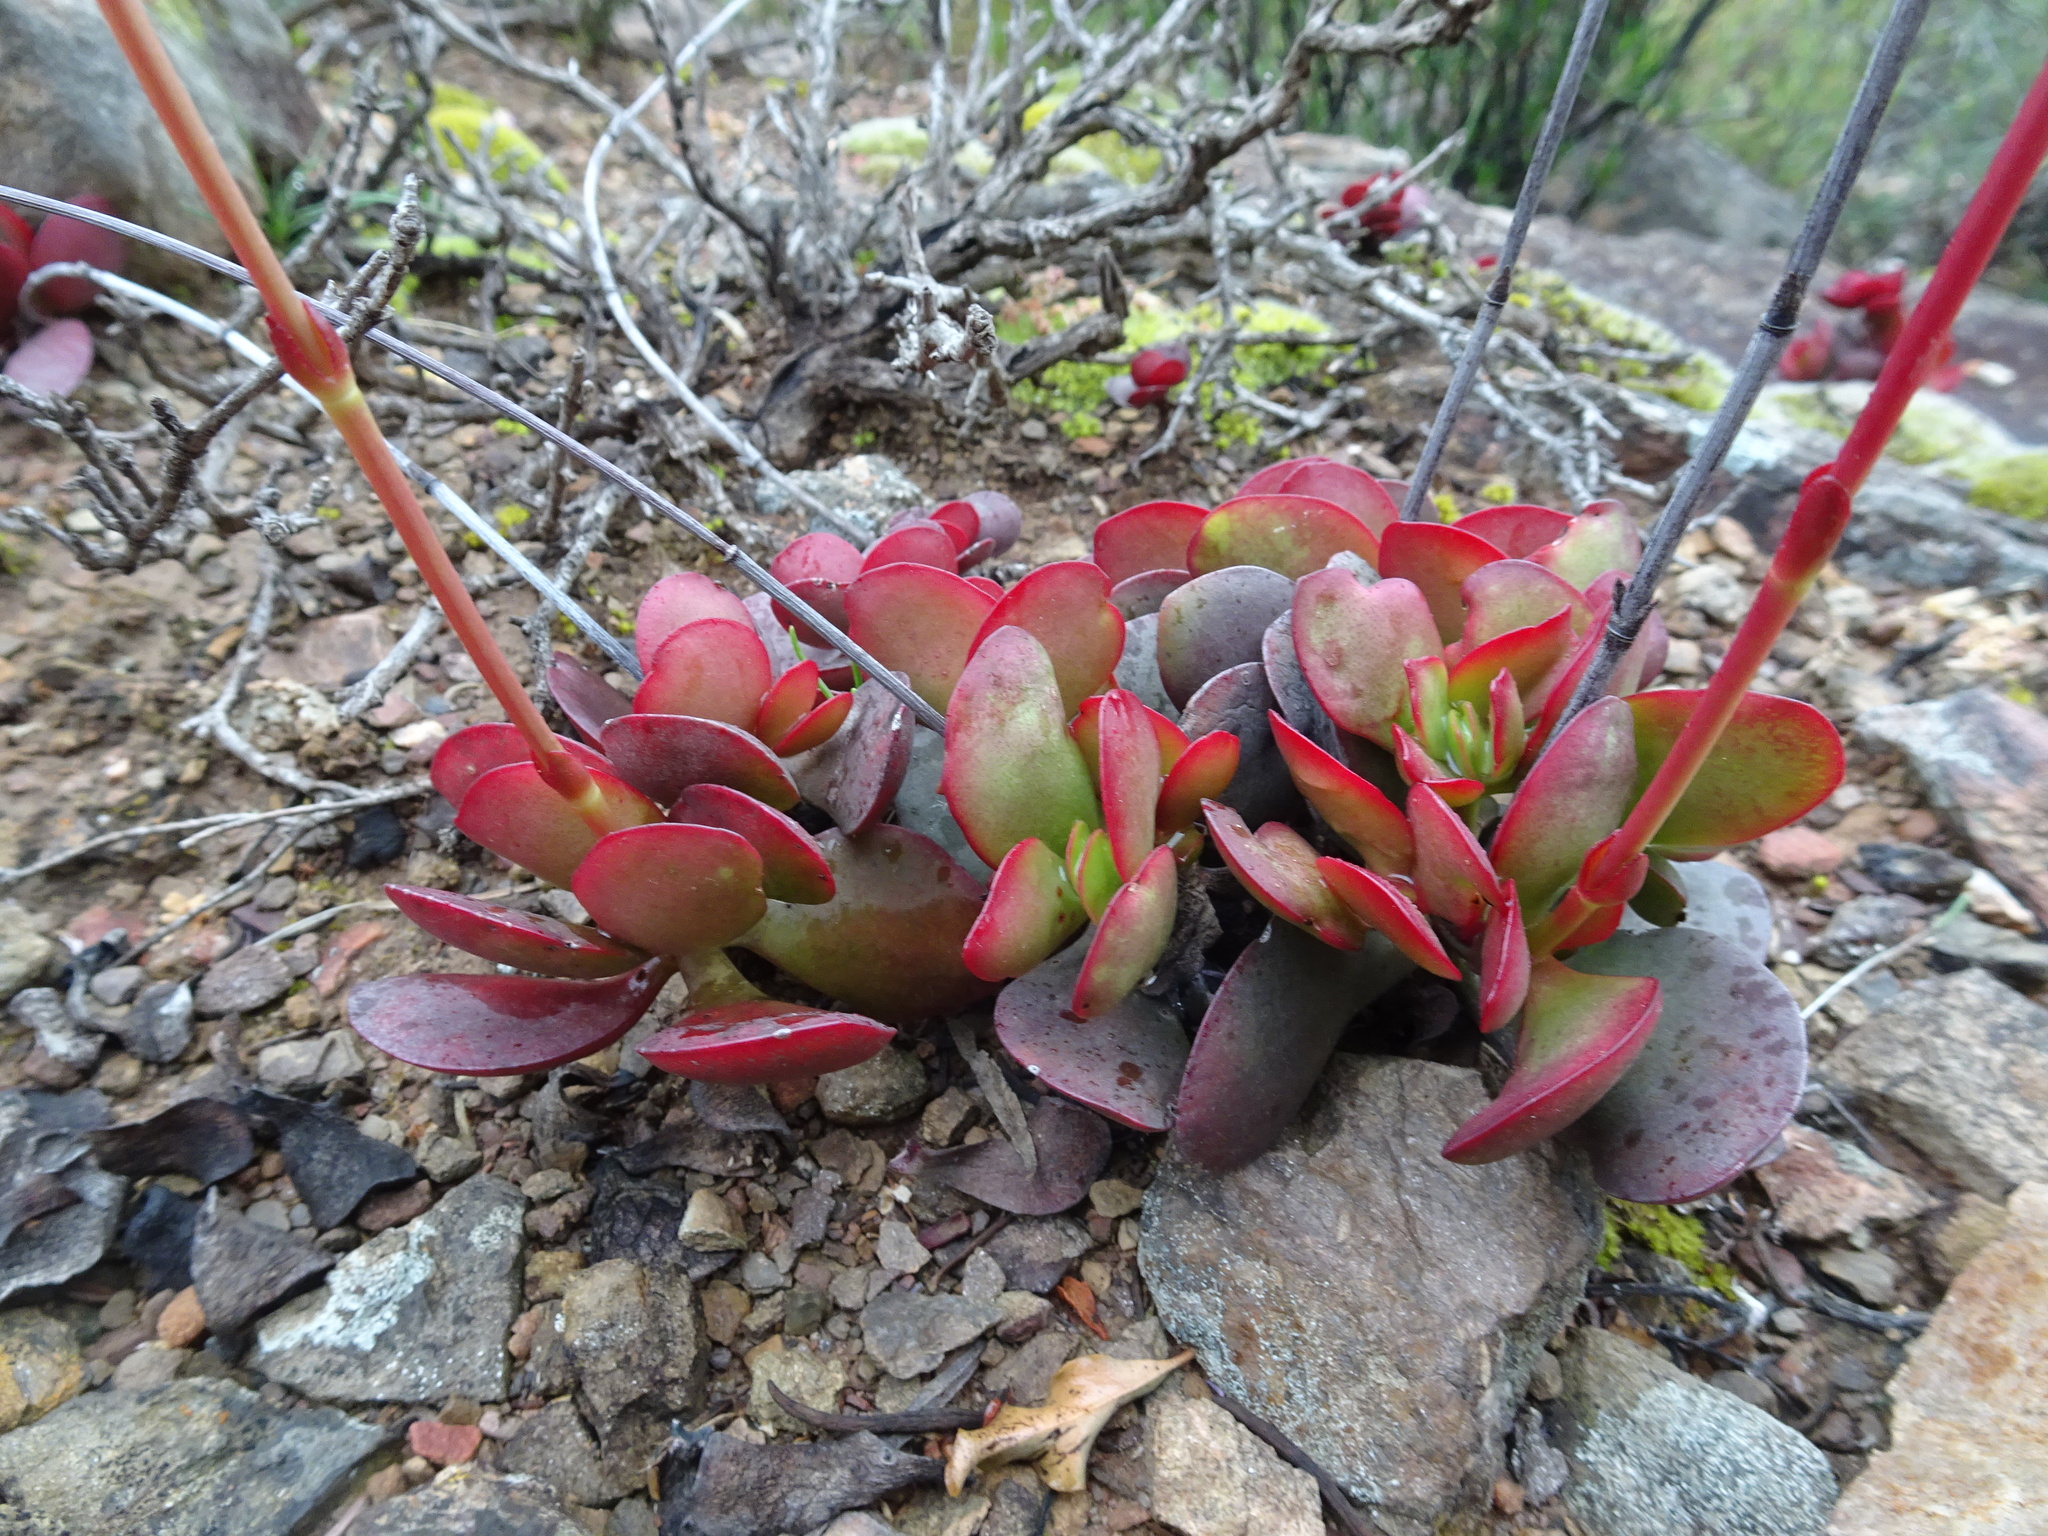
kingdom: Plantae
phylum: Tracheophyta
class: Magnoliopsida
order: Saxifragales
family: Crassulaceae
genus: Crassula
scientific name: Crassula atropurpurea
